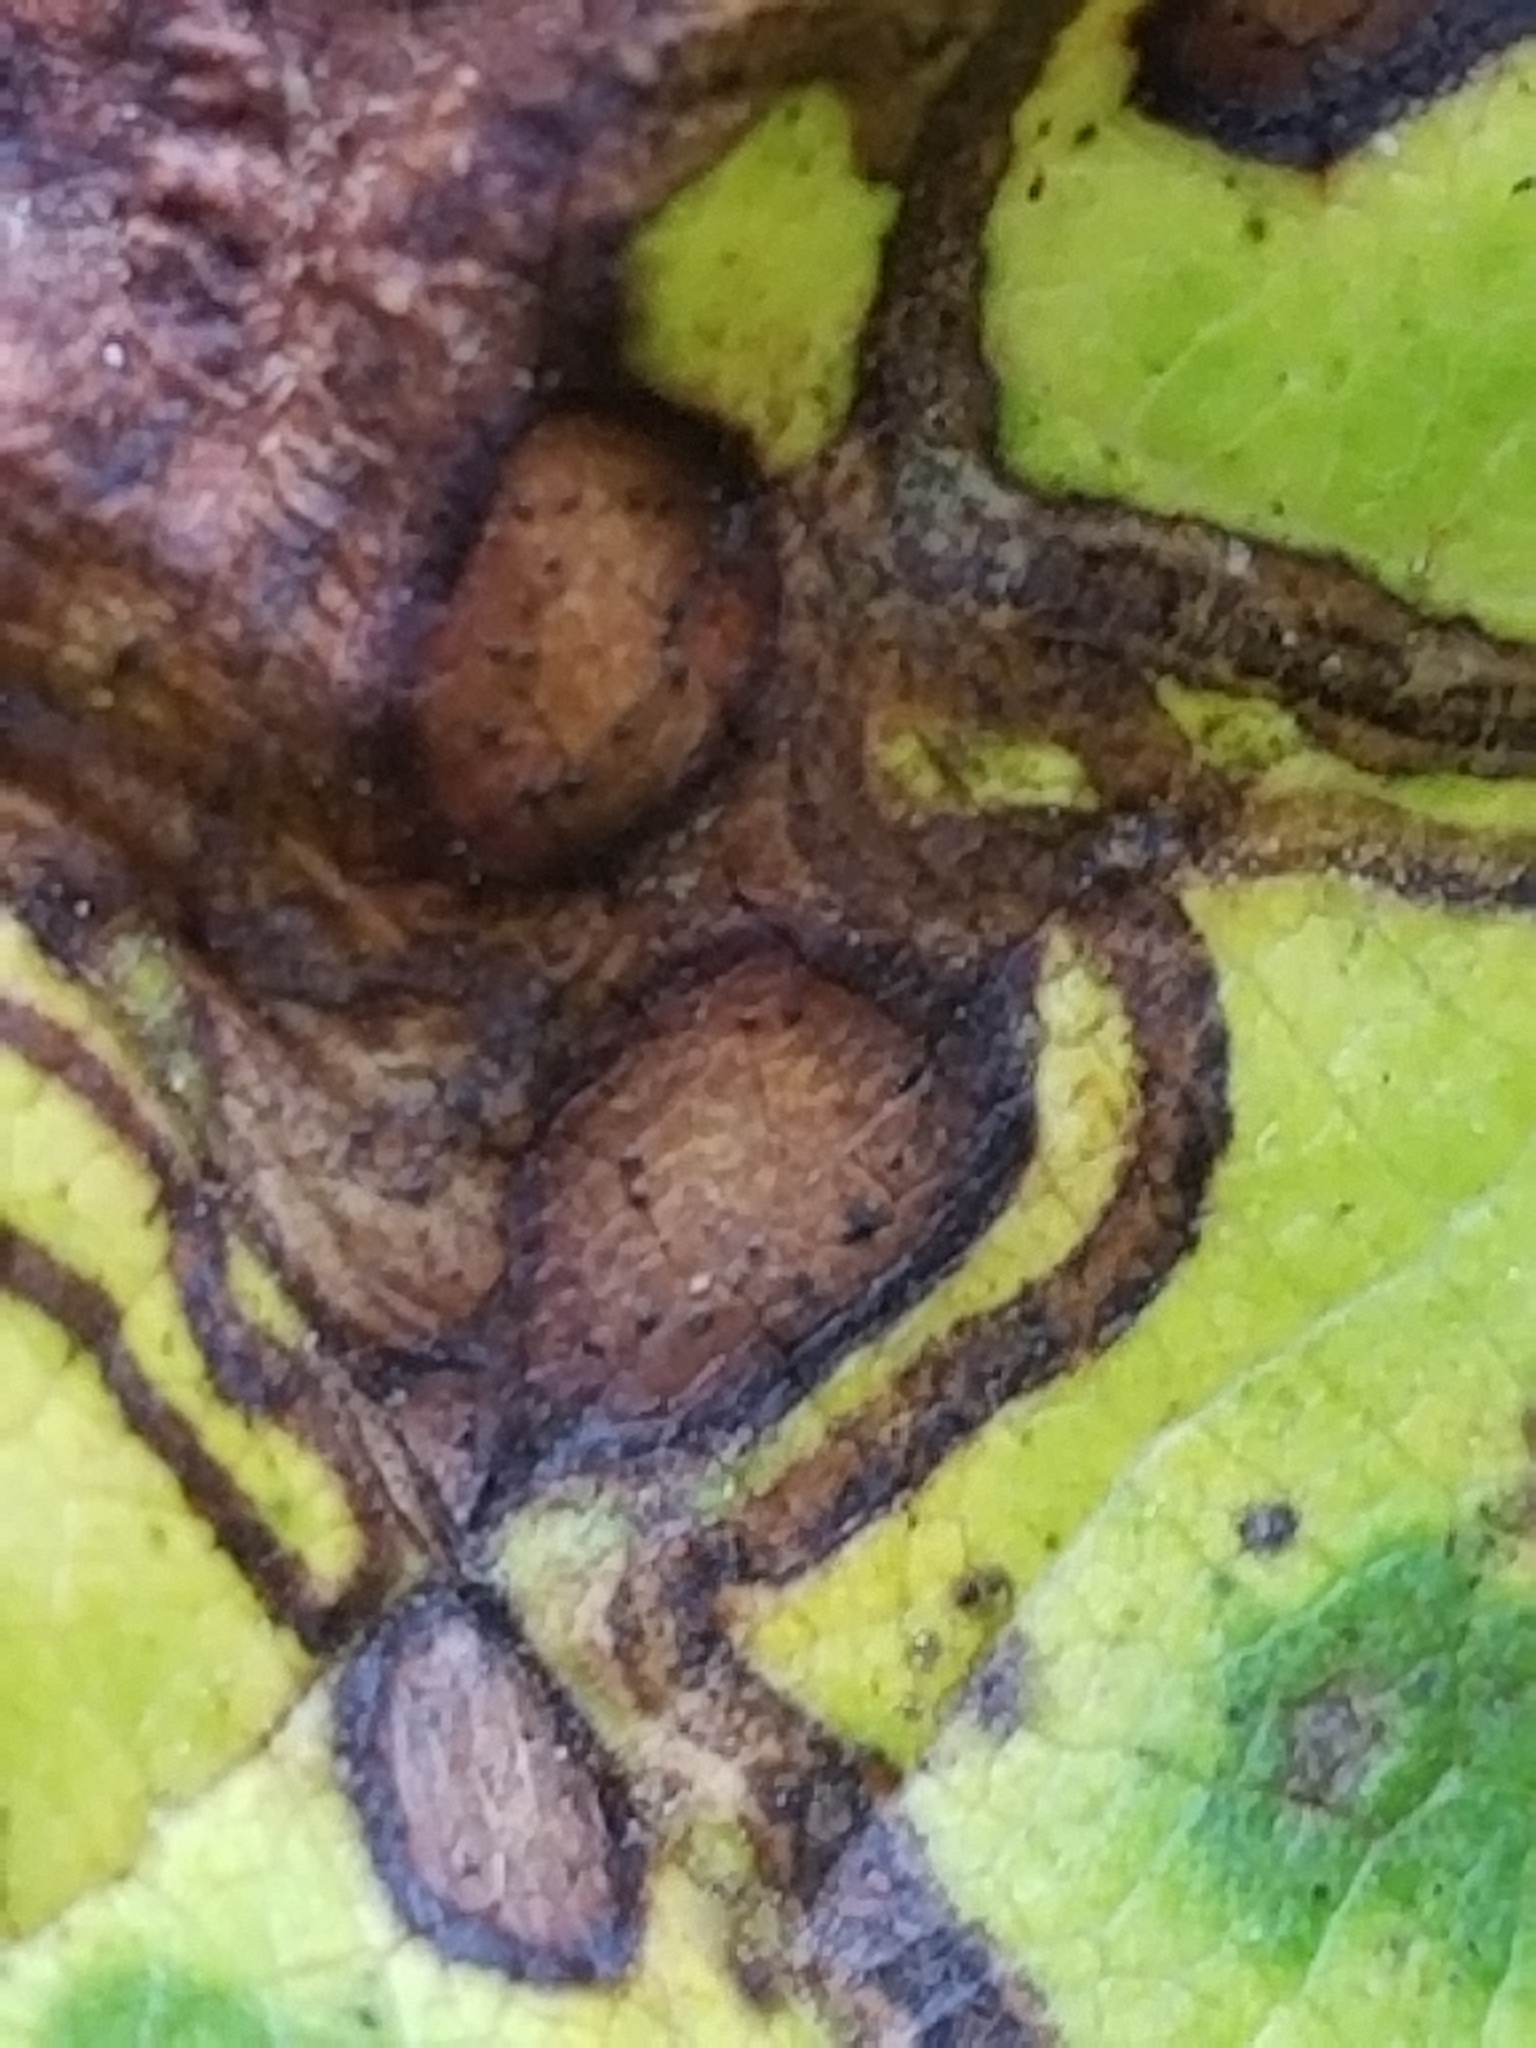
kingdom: Animalia
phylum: Arthropoda
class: Insecta
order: Lepidoptera
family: Gracillariidae
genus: Phyllocnistis
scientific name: Phyllocnistis vitifoliella
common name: Grape leaf-miner moth
